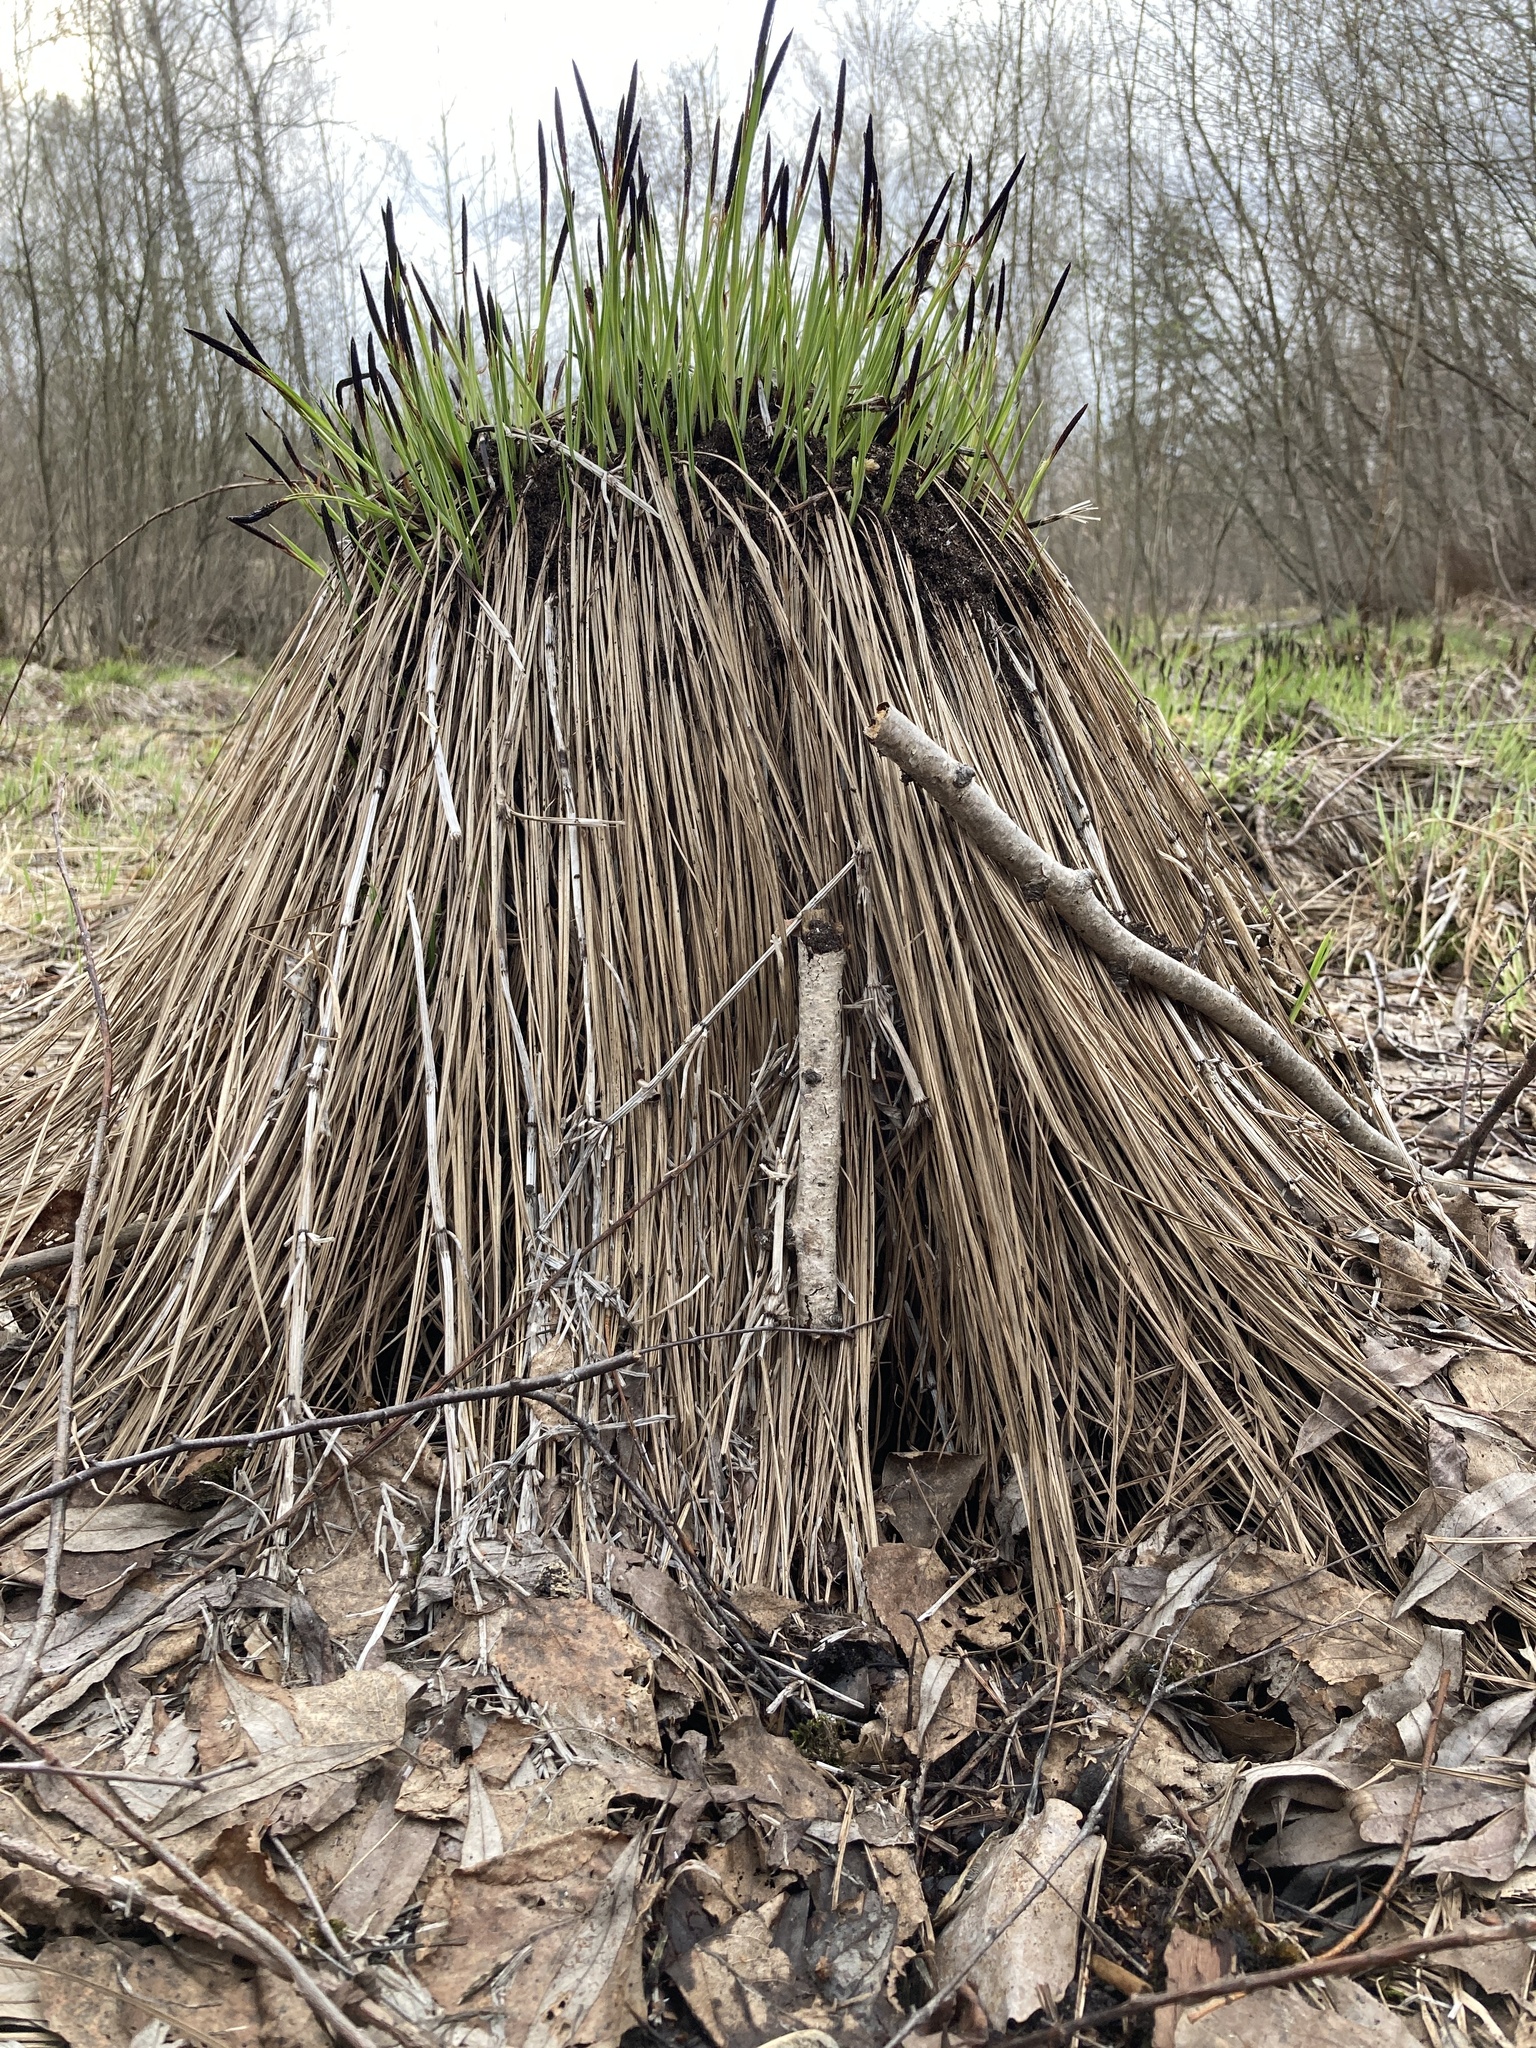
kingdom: Plantae
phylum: Tracheophyta
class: Liliopsida
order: Poales
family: Cyperaceae
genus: Carex
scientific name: Carex cespitosa
